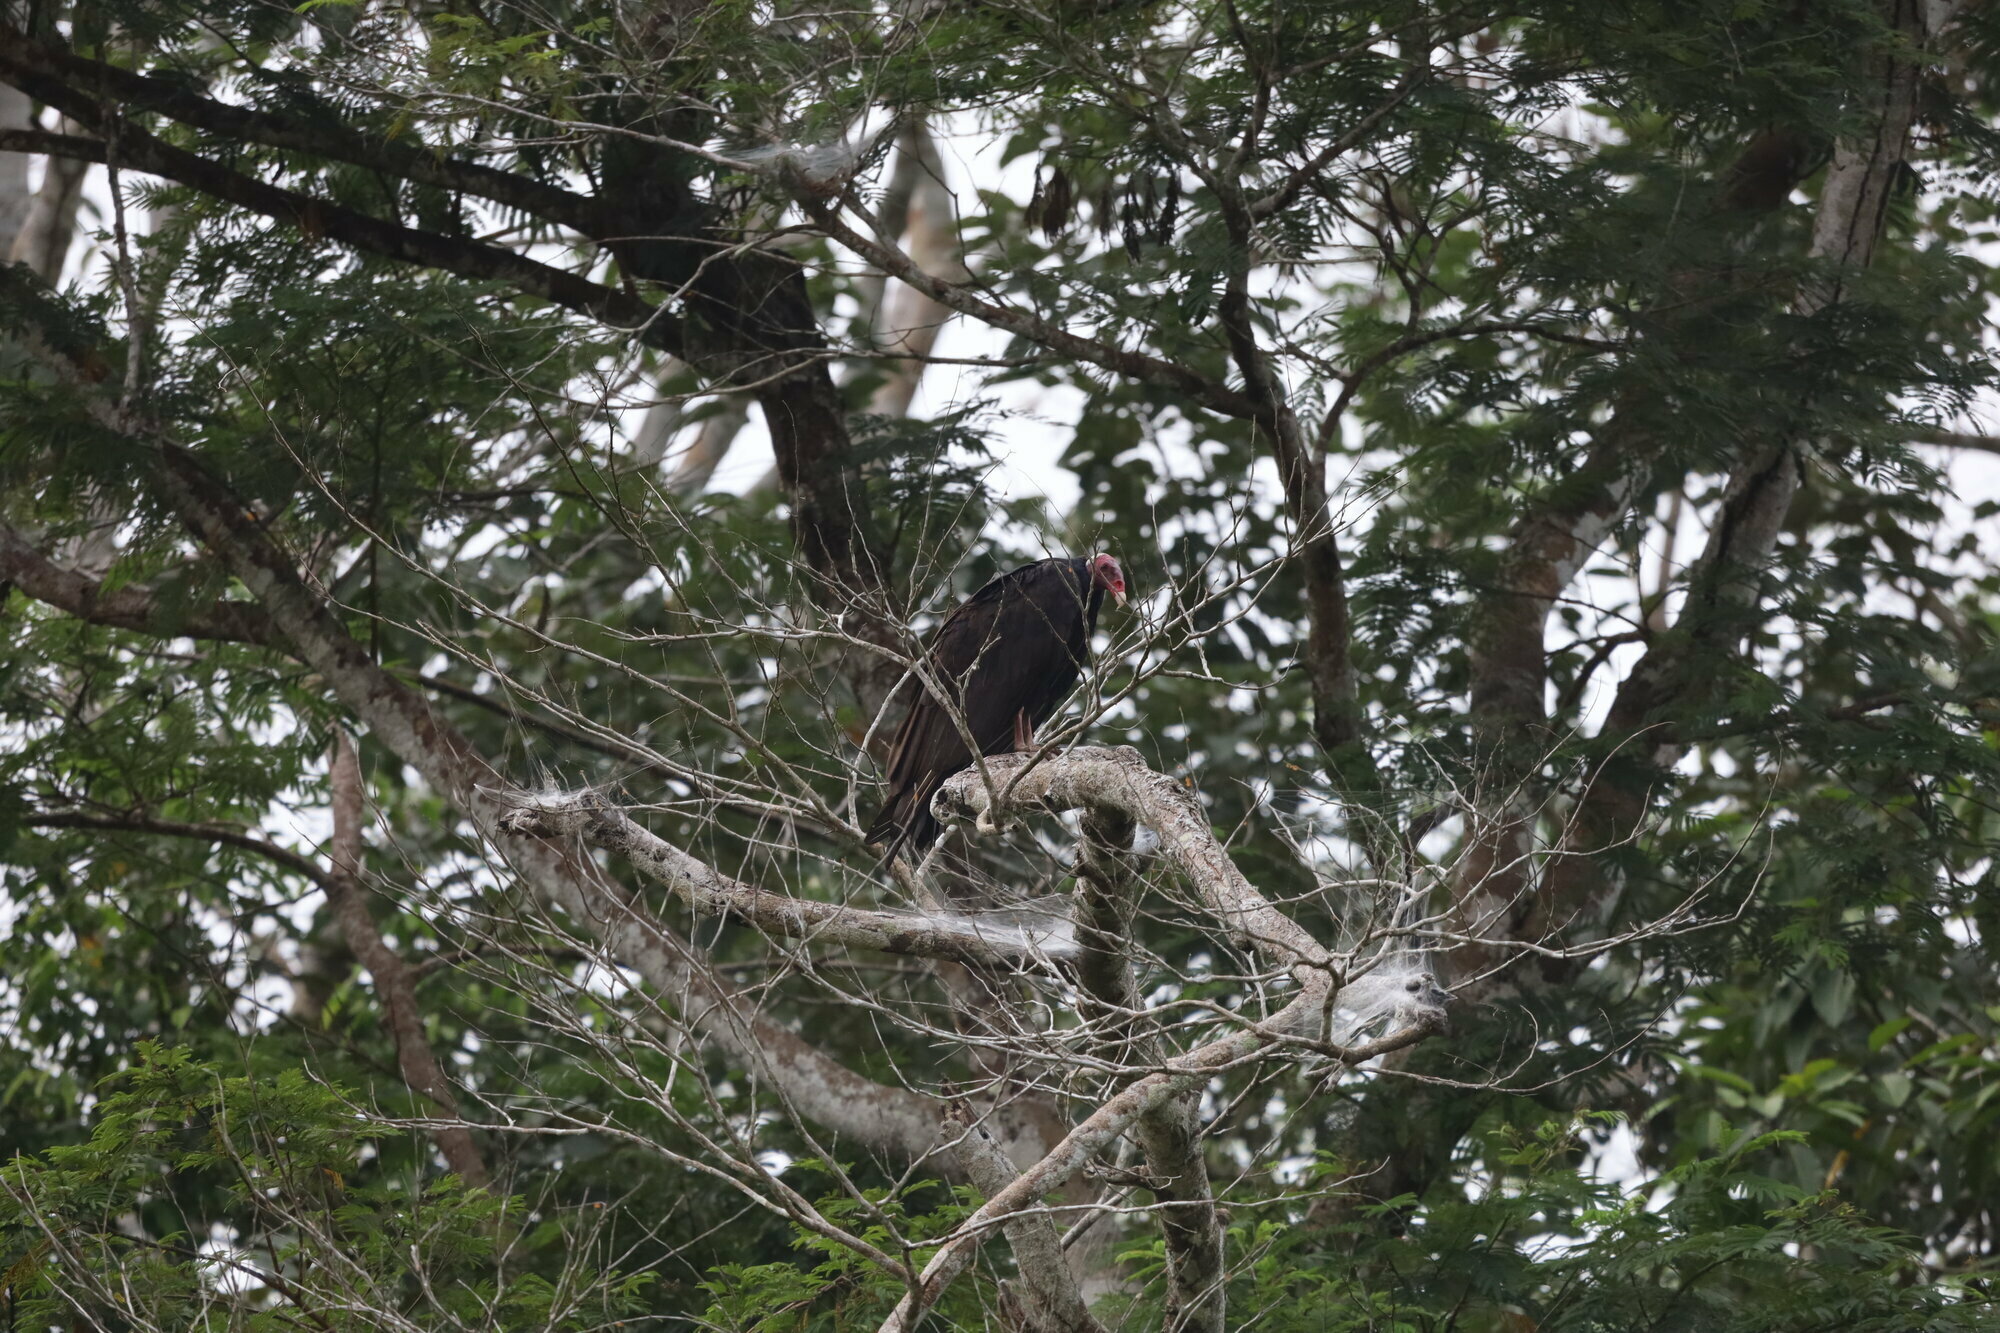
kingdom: Animalia
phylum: Chordata
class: Aves
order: Accipitriformes
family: Cathartidae
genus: Cathartes
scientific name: Cathartes aura
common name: Turkey vulture
